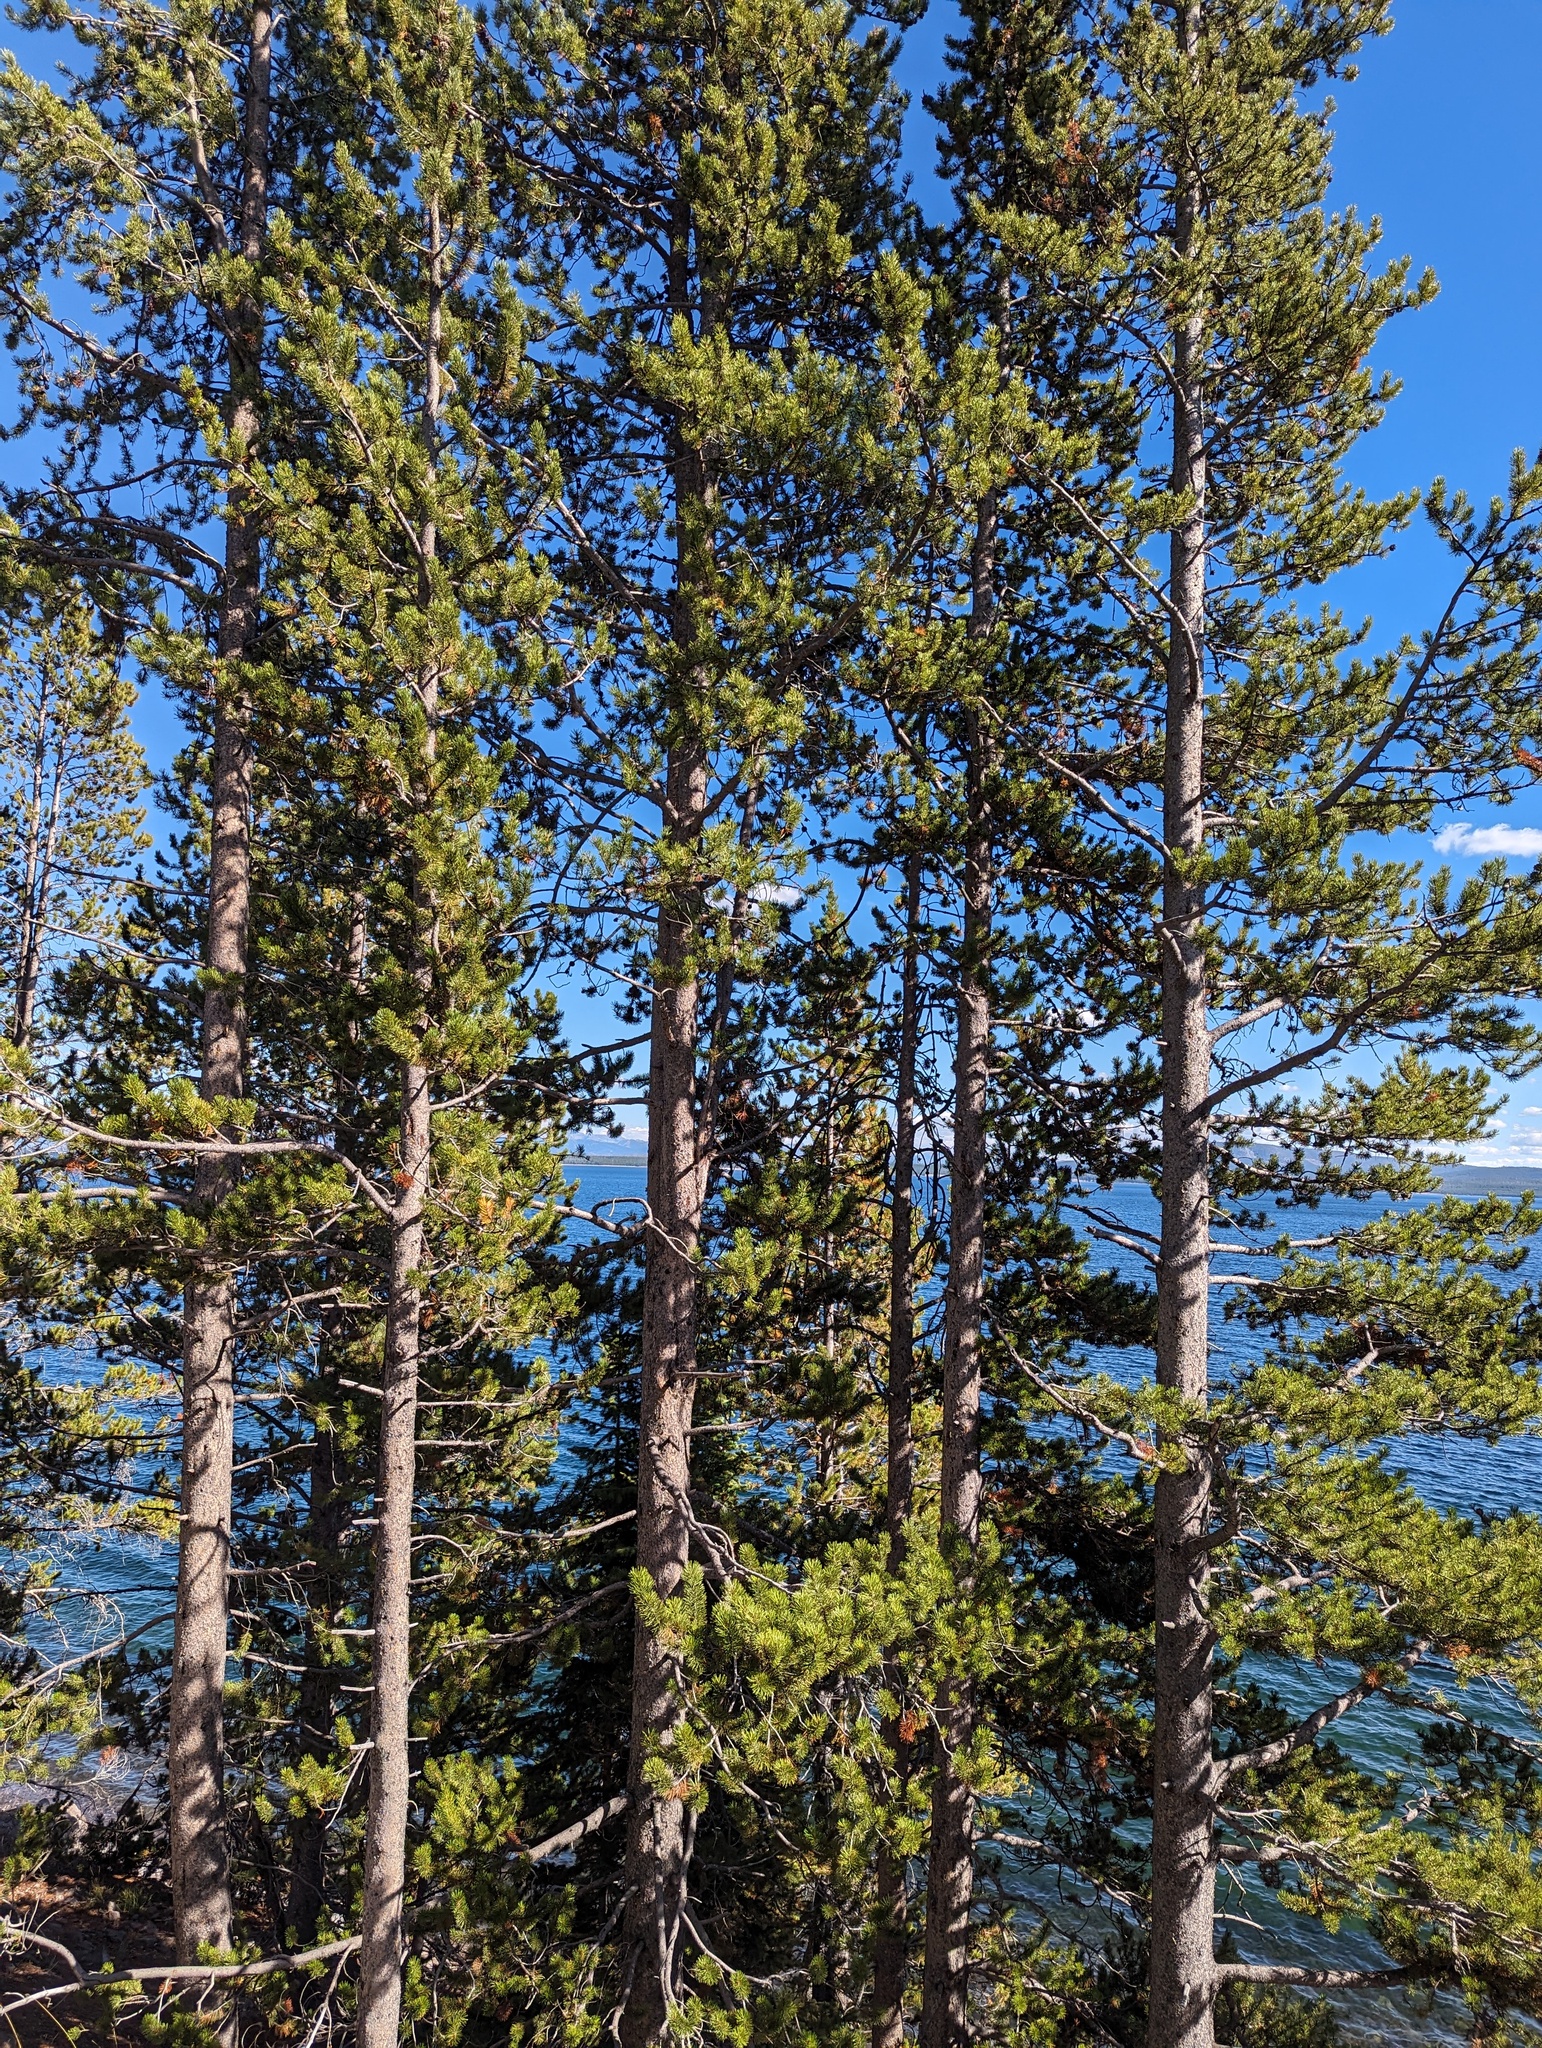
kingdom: Plantae
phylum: Tracheophyta
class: Pinopsida
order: Pinales
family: Pinaceae
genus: Pinus
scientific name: Pinus contorta
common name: Lodgepole pine
